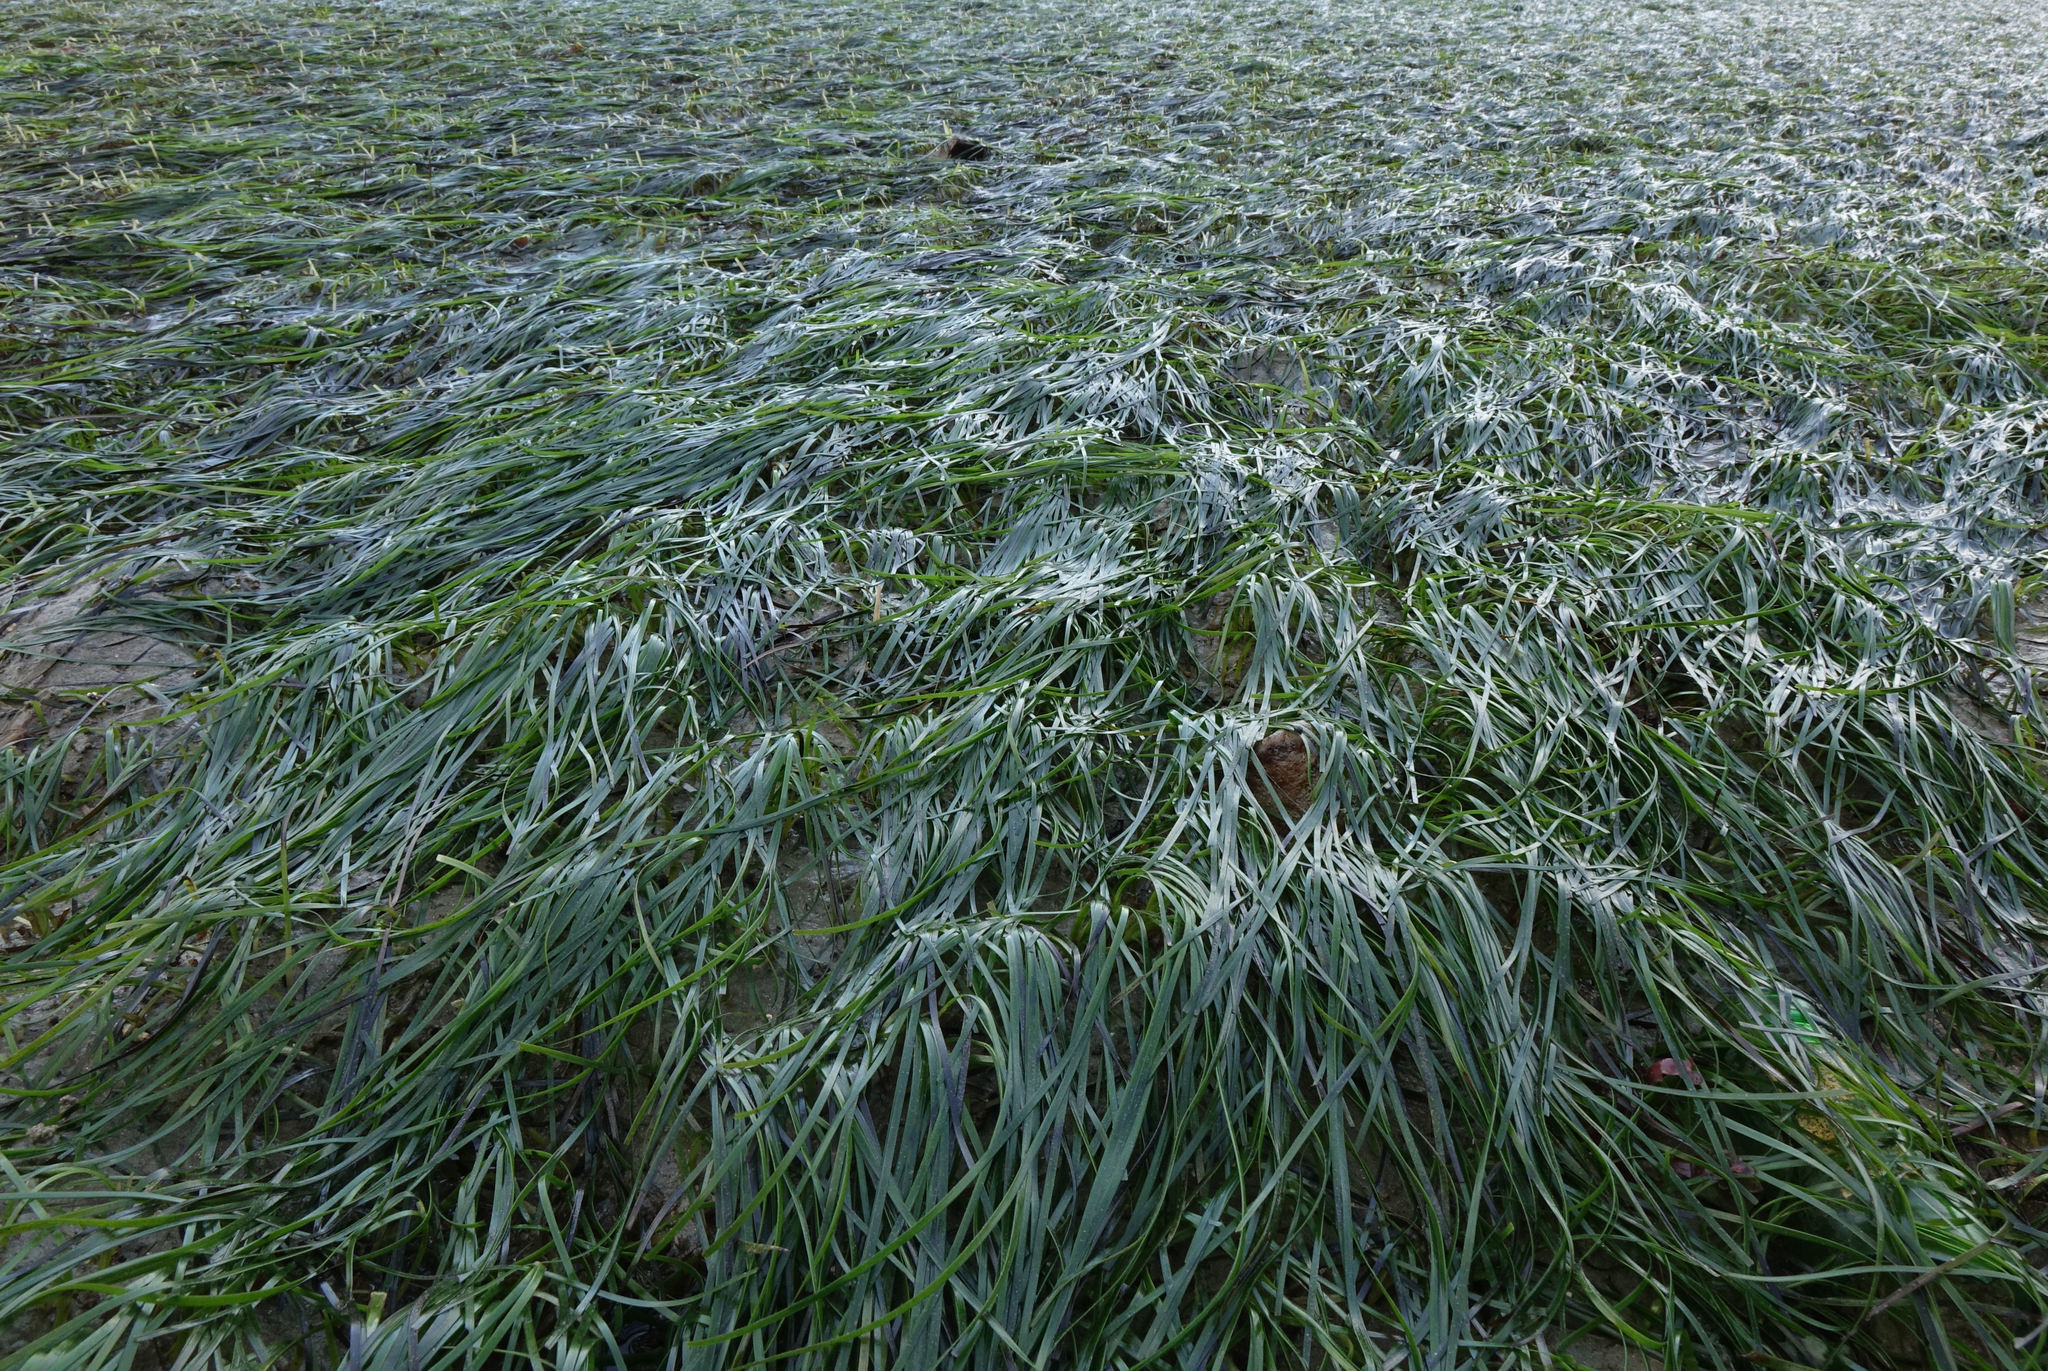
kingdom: Plantae
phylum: Tracheophyta
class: Liliopsida
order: Alismatales
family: Zosteraceae
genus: Zostera
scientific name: Zostera novazelandica
